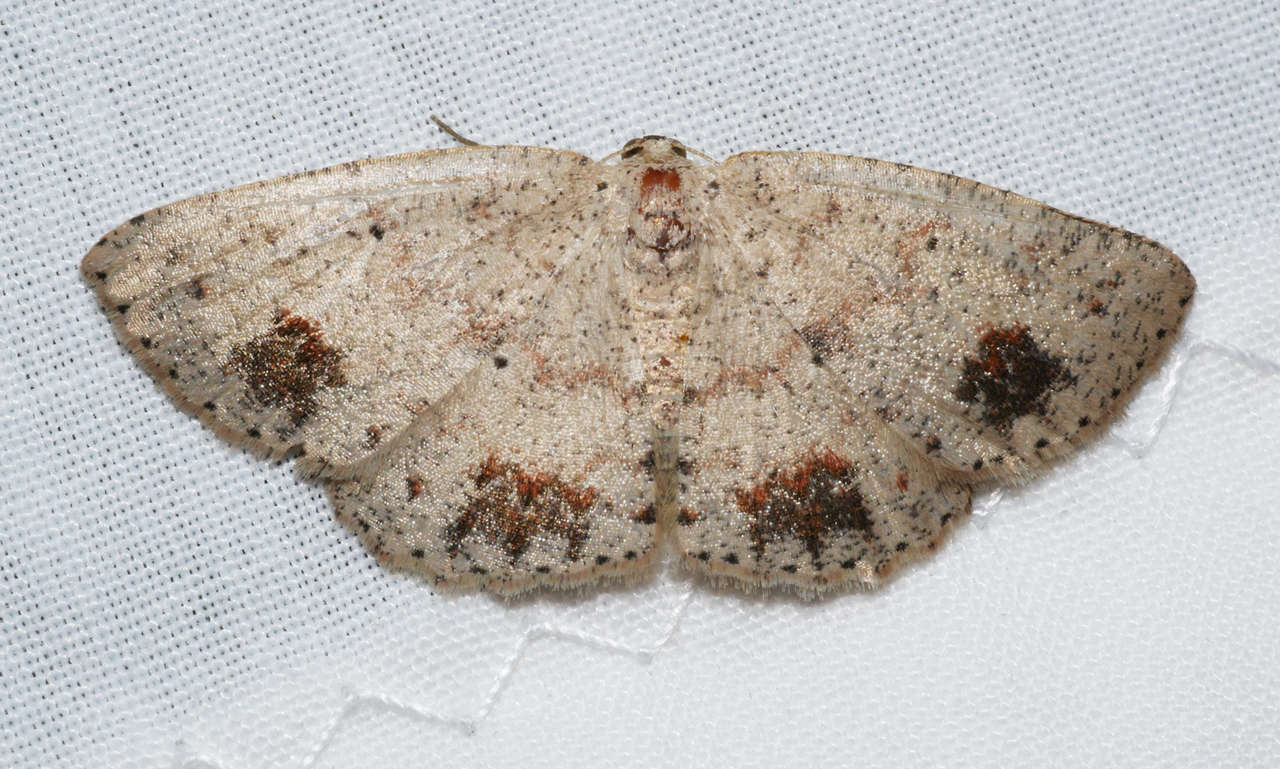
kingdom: Animalia
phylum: Arthropoda
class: Insecta
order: Lepidoptera
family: Geometridae
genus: Casbia
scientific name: Casbia celidosema
